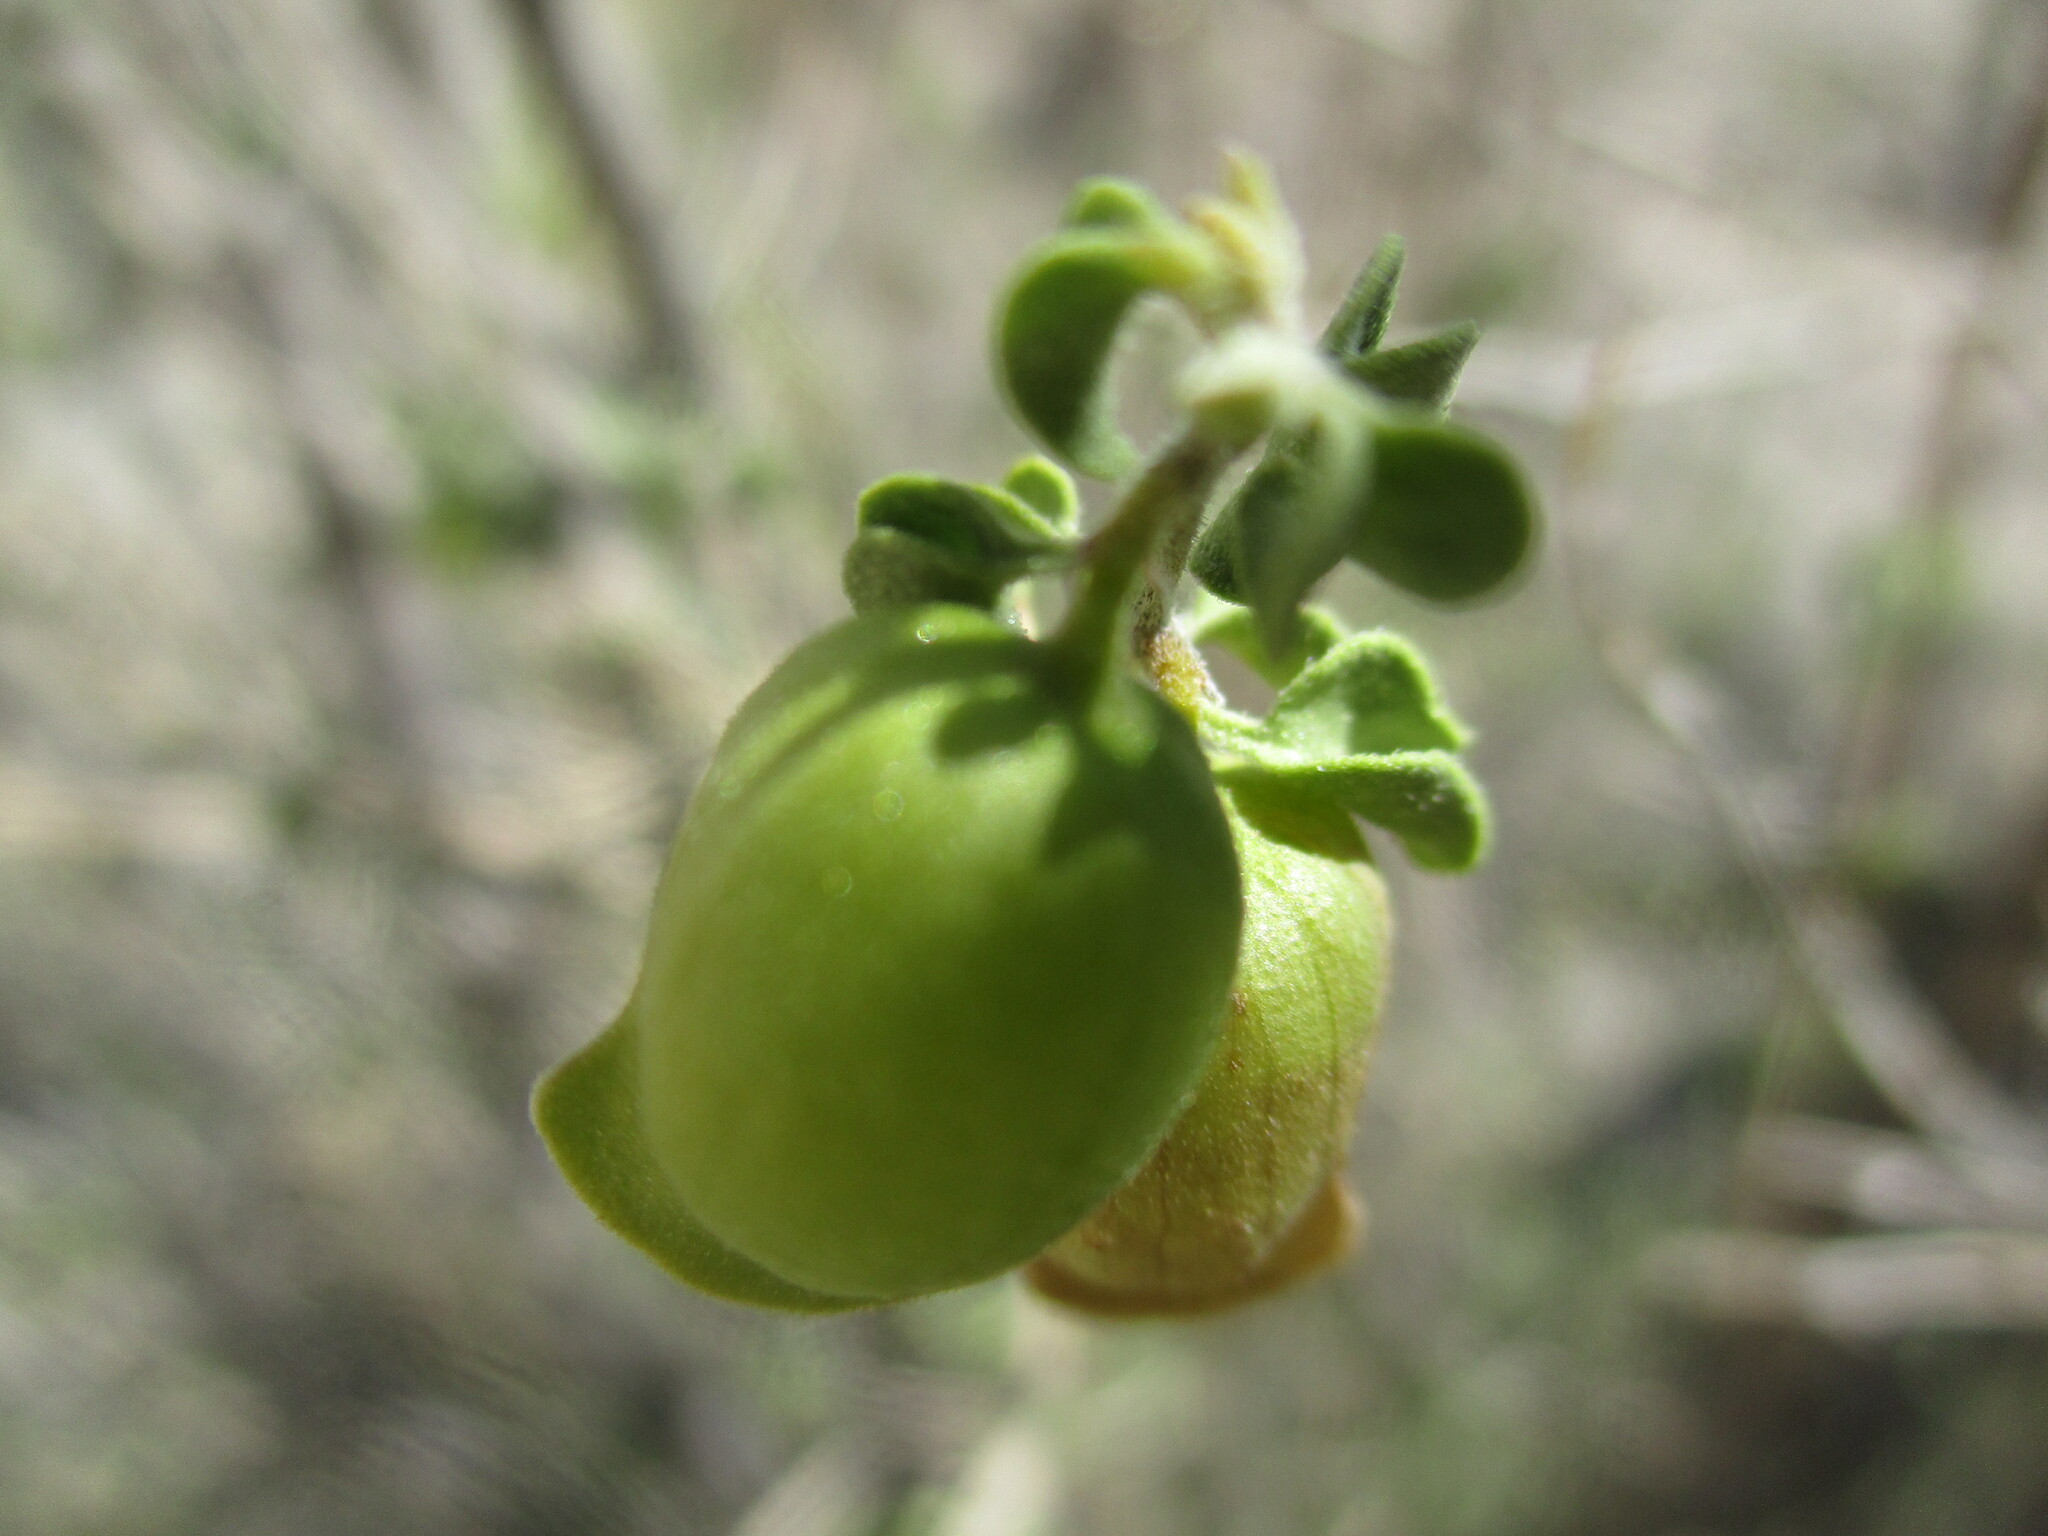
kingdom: Plantae
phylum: Tracheophyta
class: Magnoliopsida
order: Lamiales
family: Lamiaceae
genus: Tinnea
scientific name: Tinnea rhodesiana
